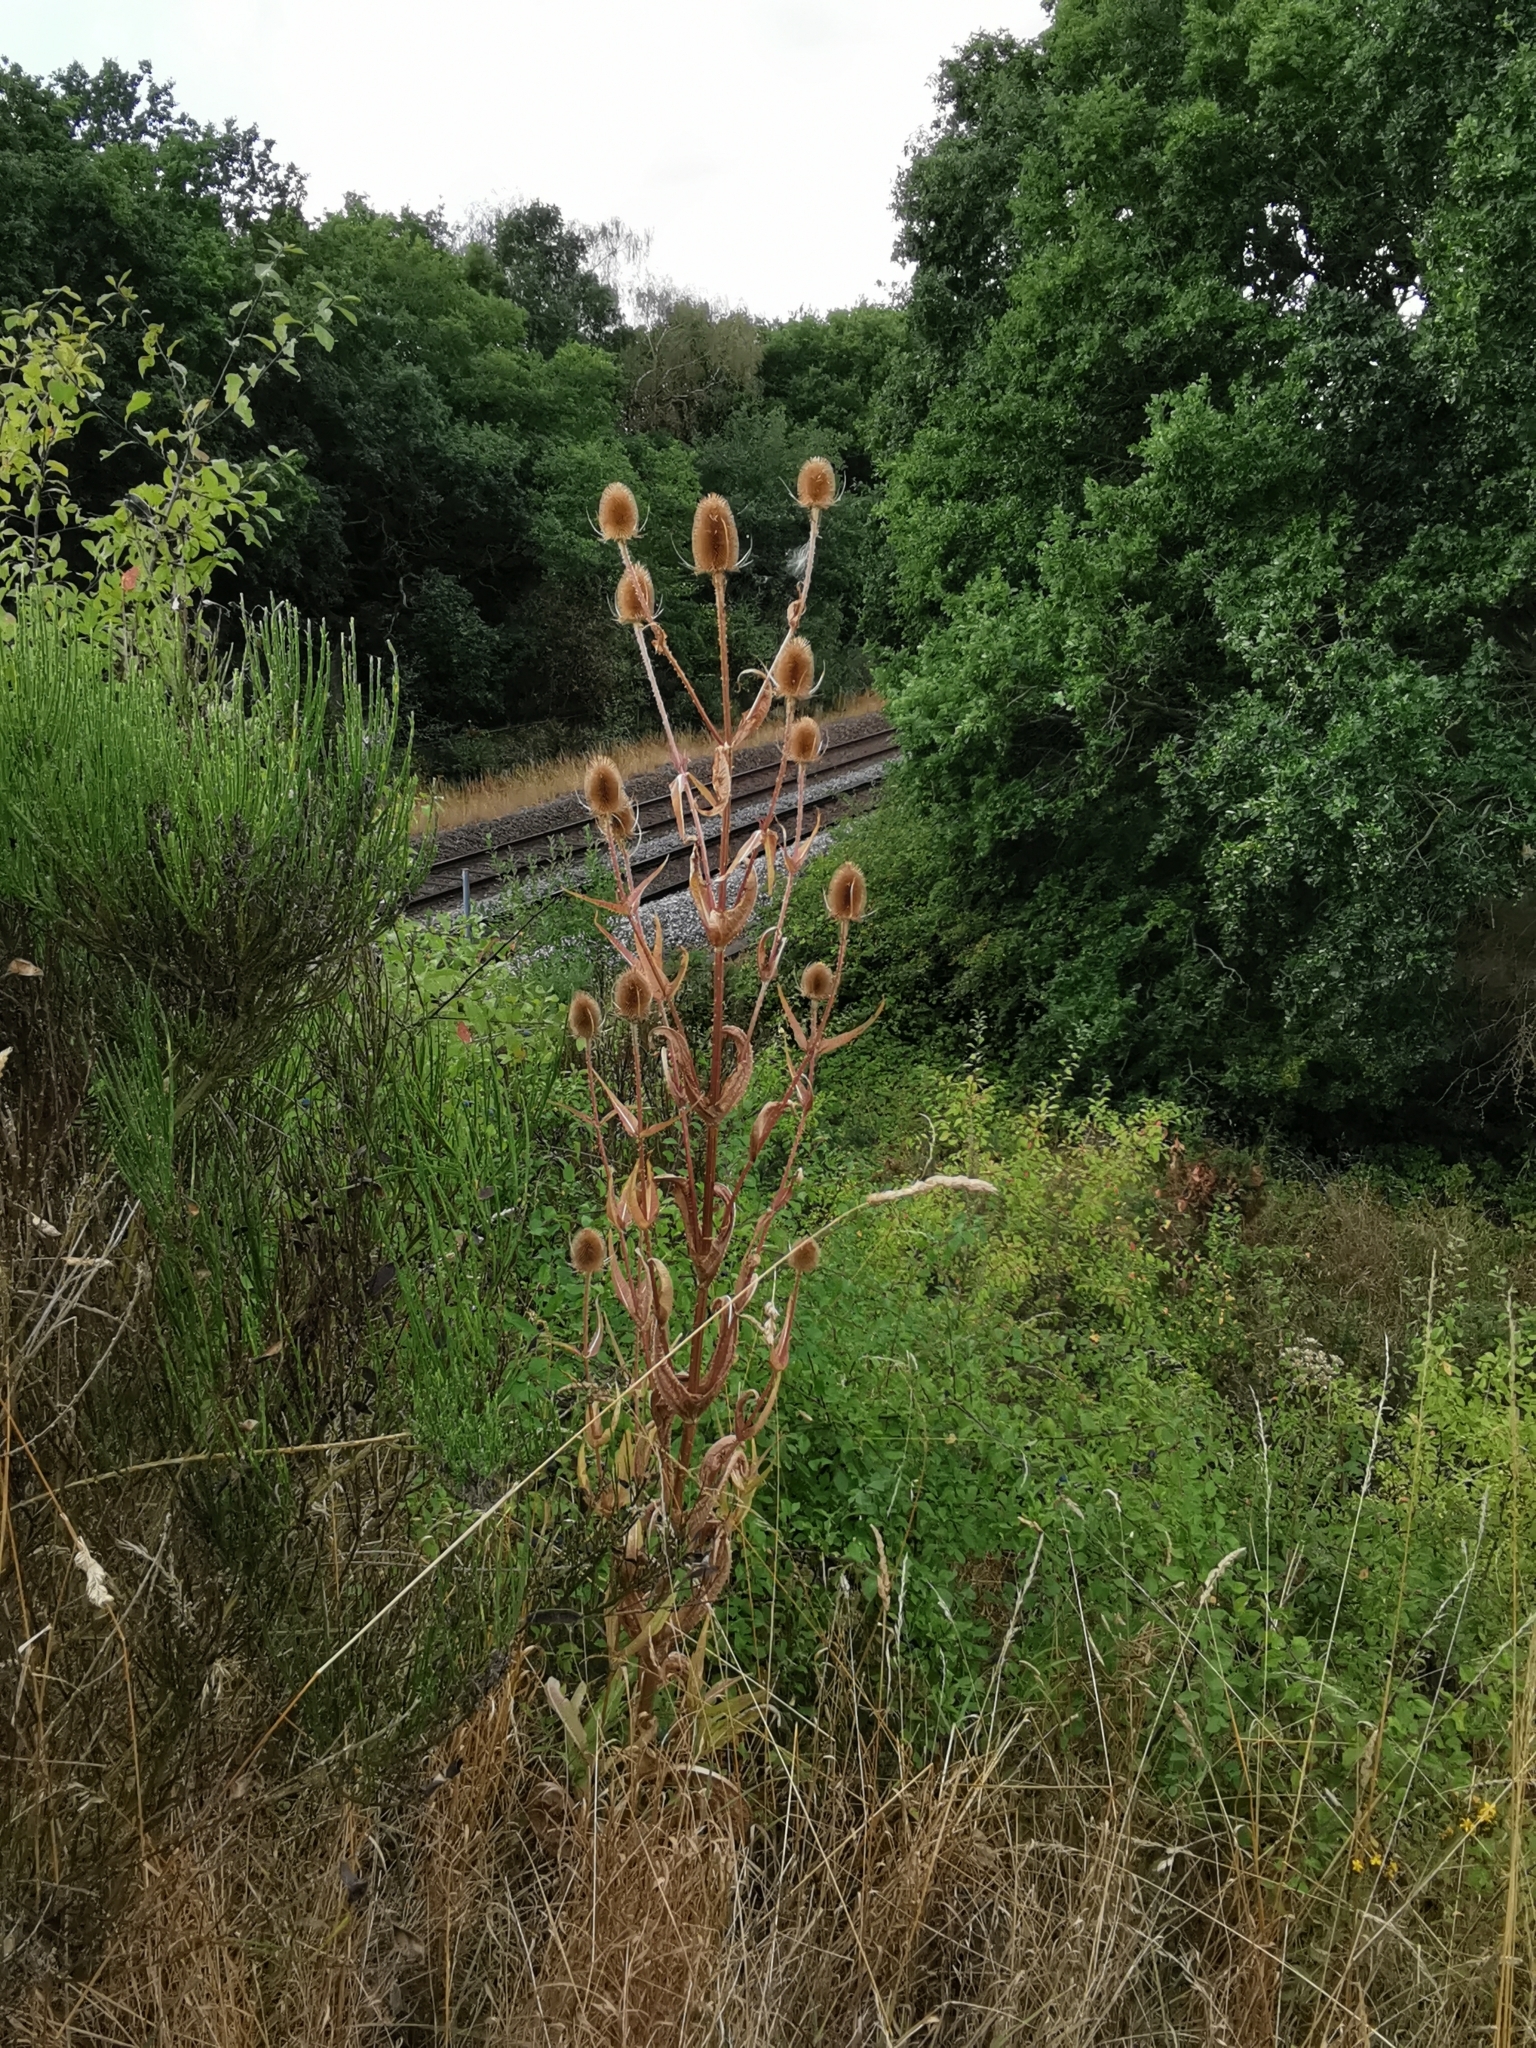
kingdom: Plantae
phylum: Tracheophyta
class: Magnoliopsida
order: Dipsacales
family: Caprifoliaceae
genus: Dipsacus
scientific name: Dipsacus fullonum
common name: Teasel
